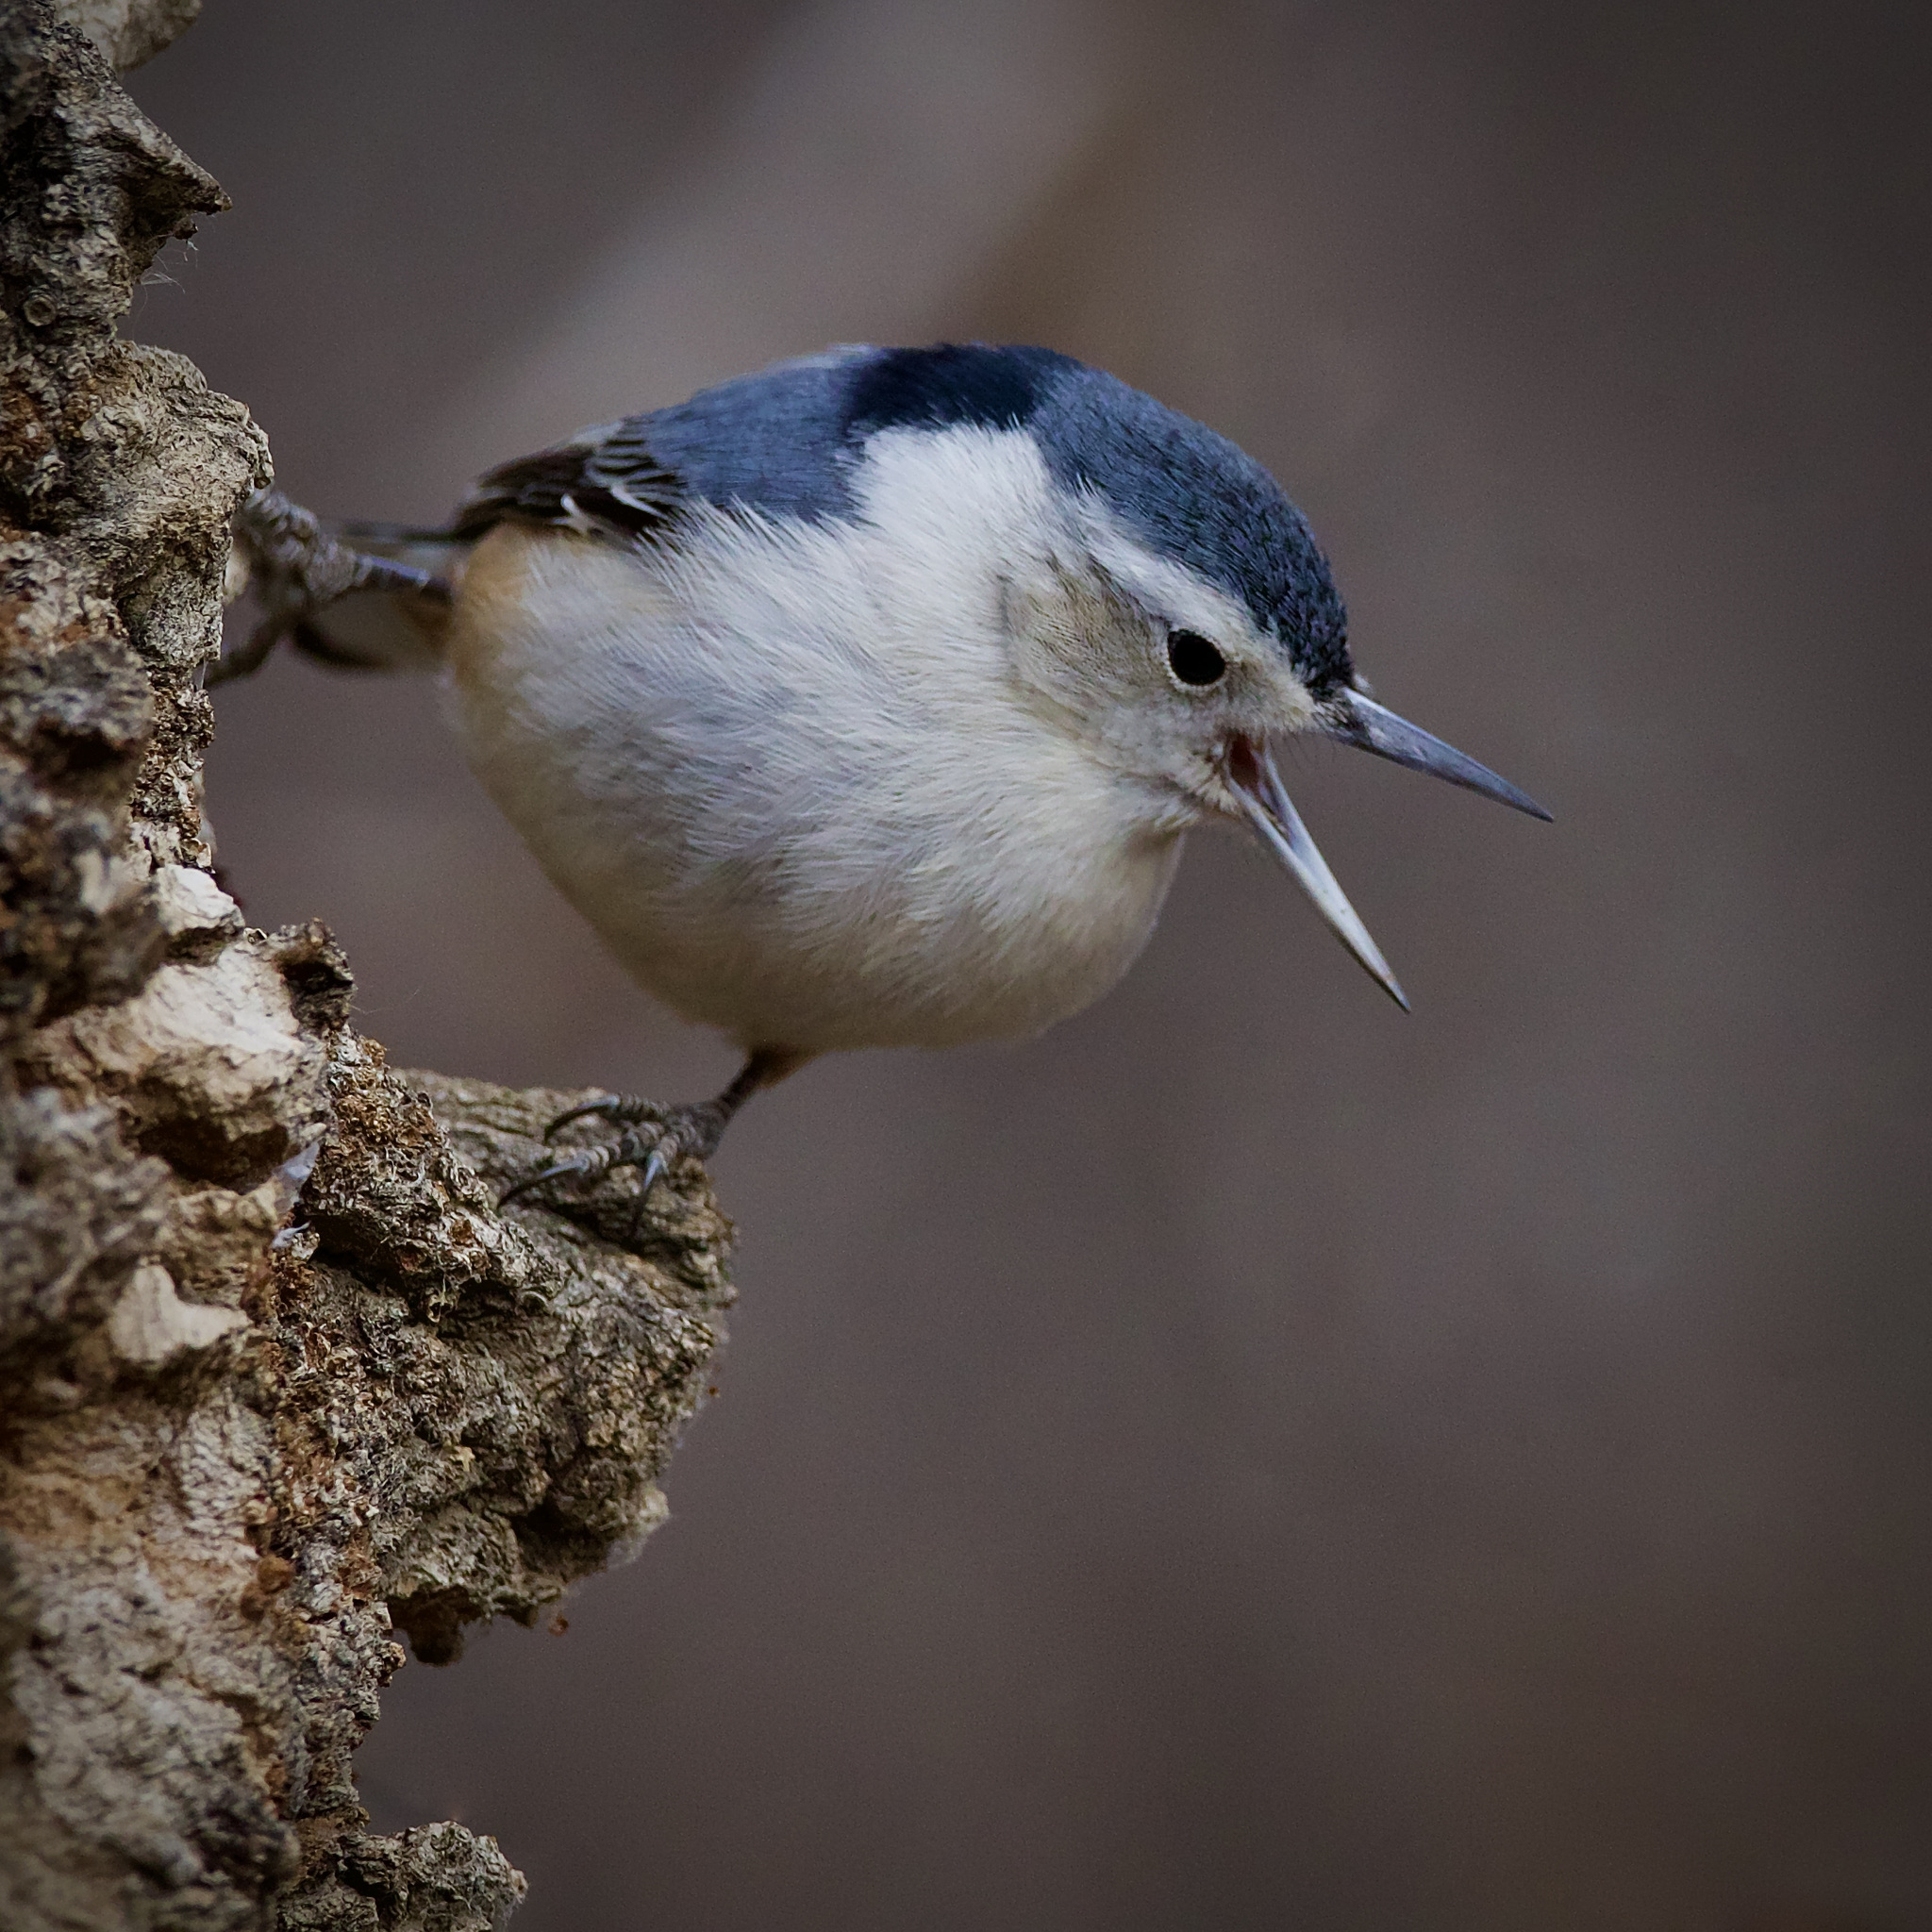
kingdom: Animalia
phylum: Chordata
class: Aves
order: Passeriformes
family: Sittidae
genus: Sitta
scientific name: Sitta carolinensis
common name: White-breasted nuthatch
